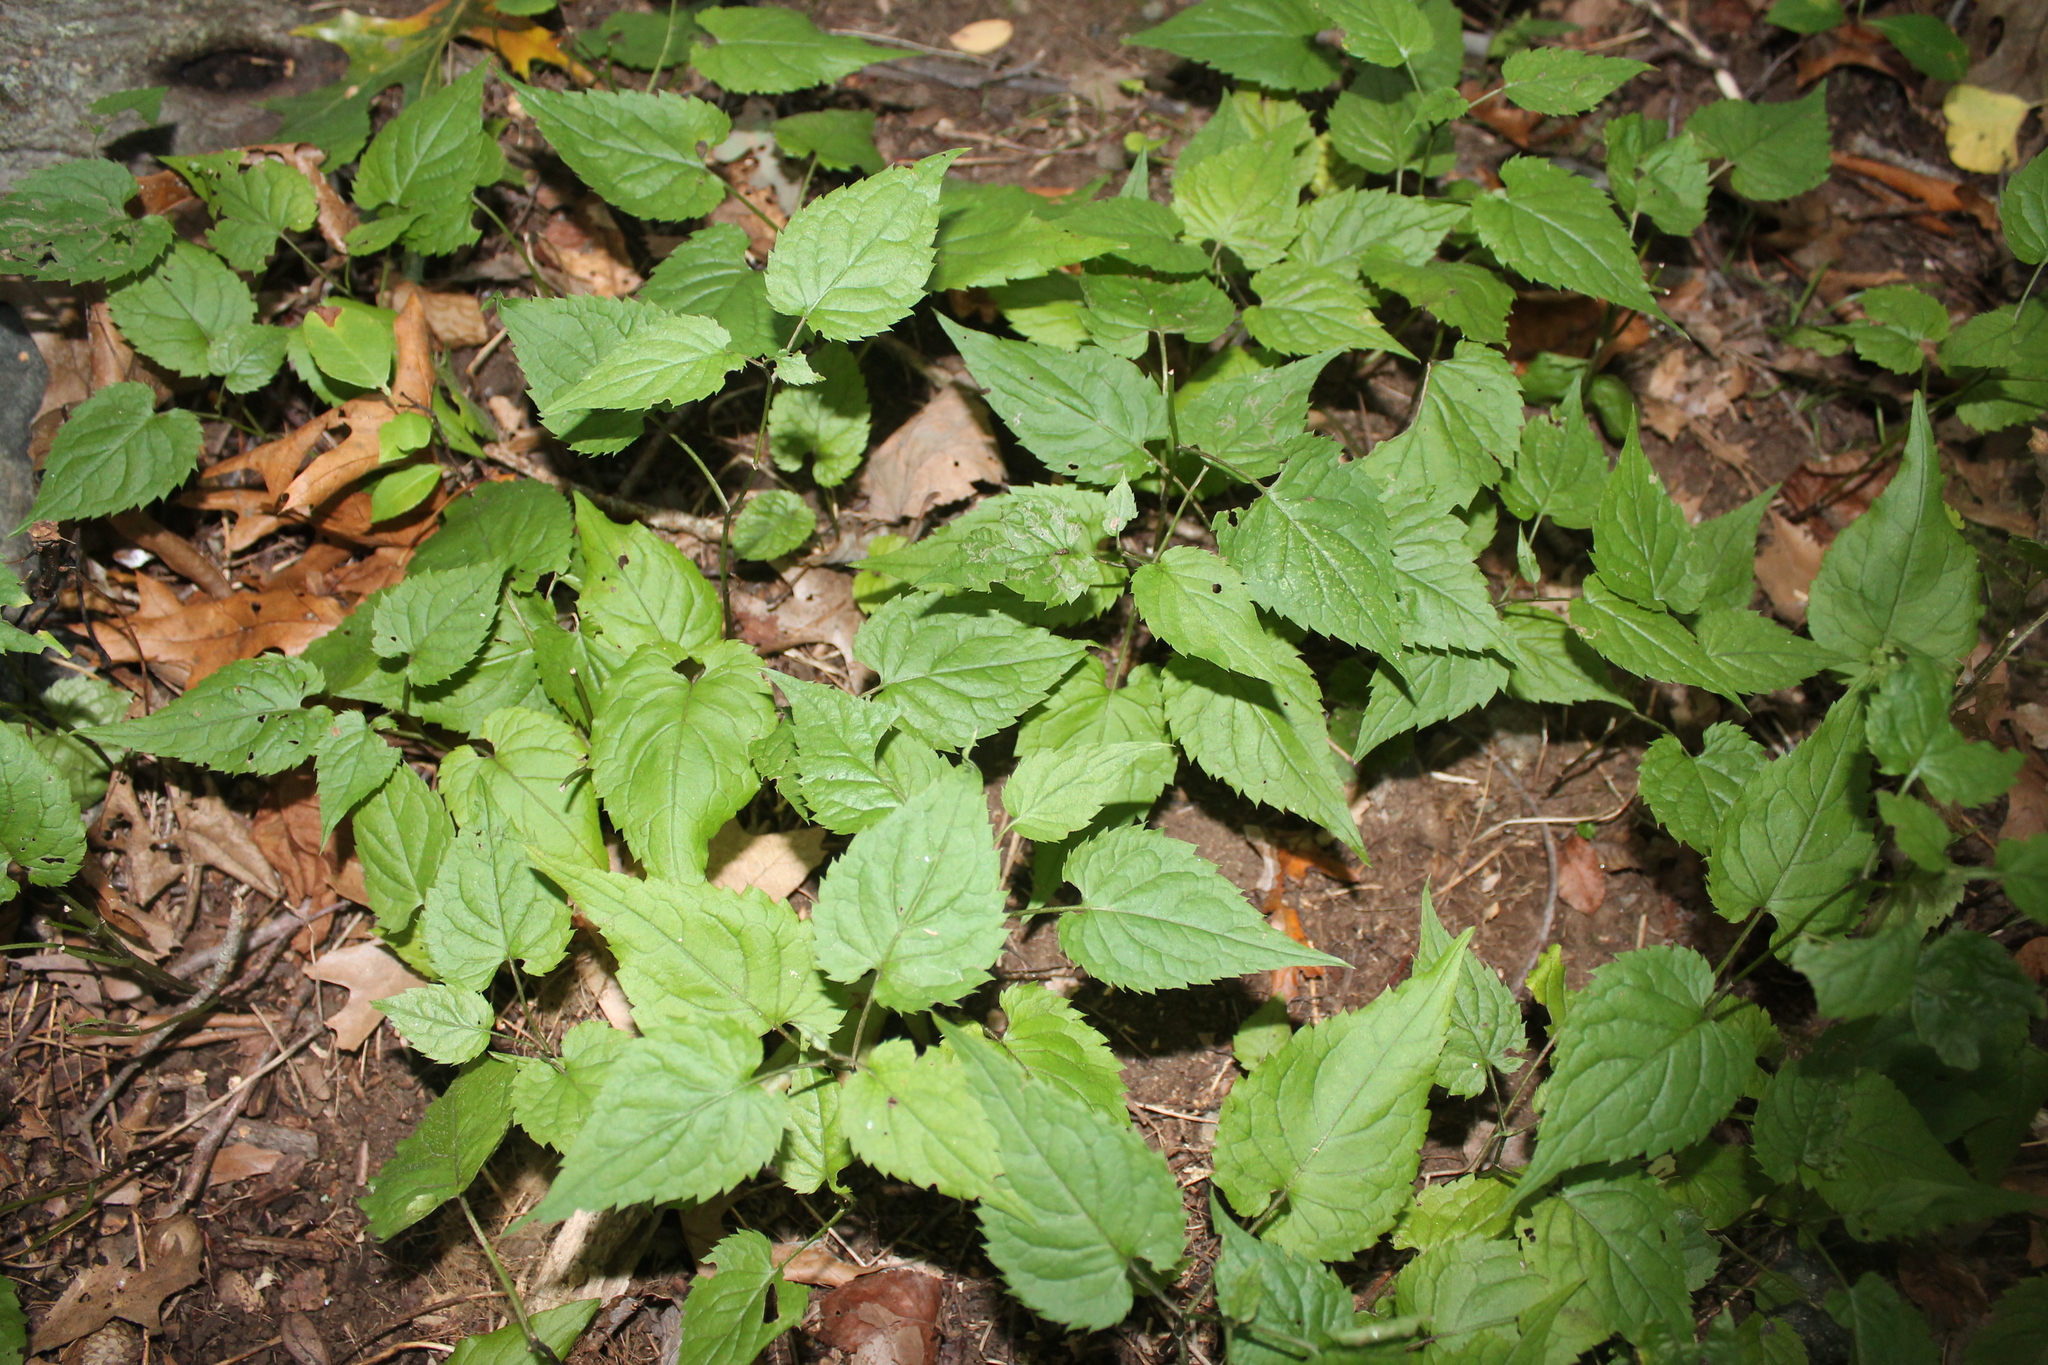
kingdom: Plantae
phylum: Tracheophyta
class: Magnoliopsida
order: Asterales
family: Asteraceae
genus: Eurybia
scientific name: Eurybia divaricata
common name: White wood aster
